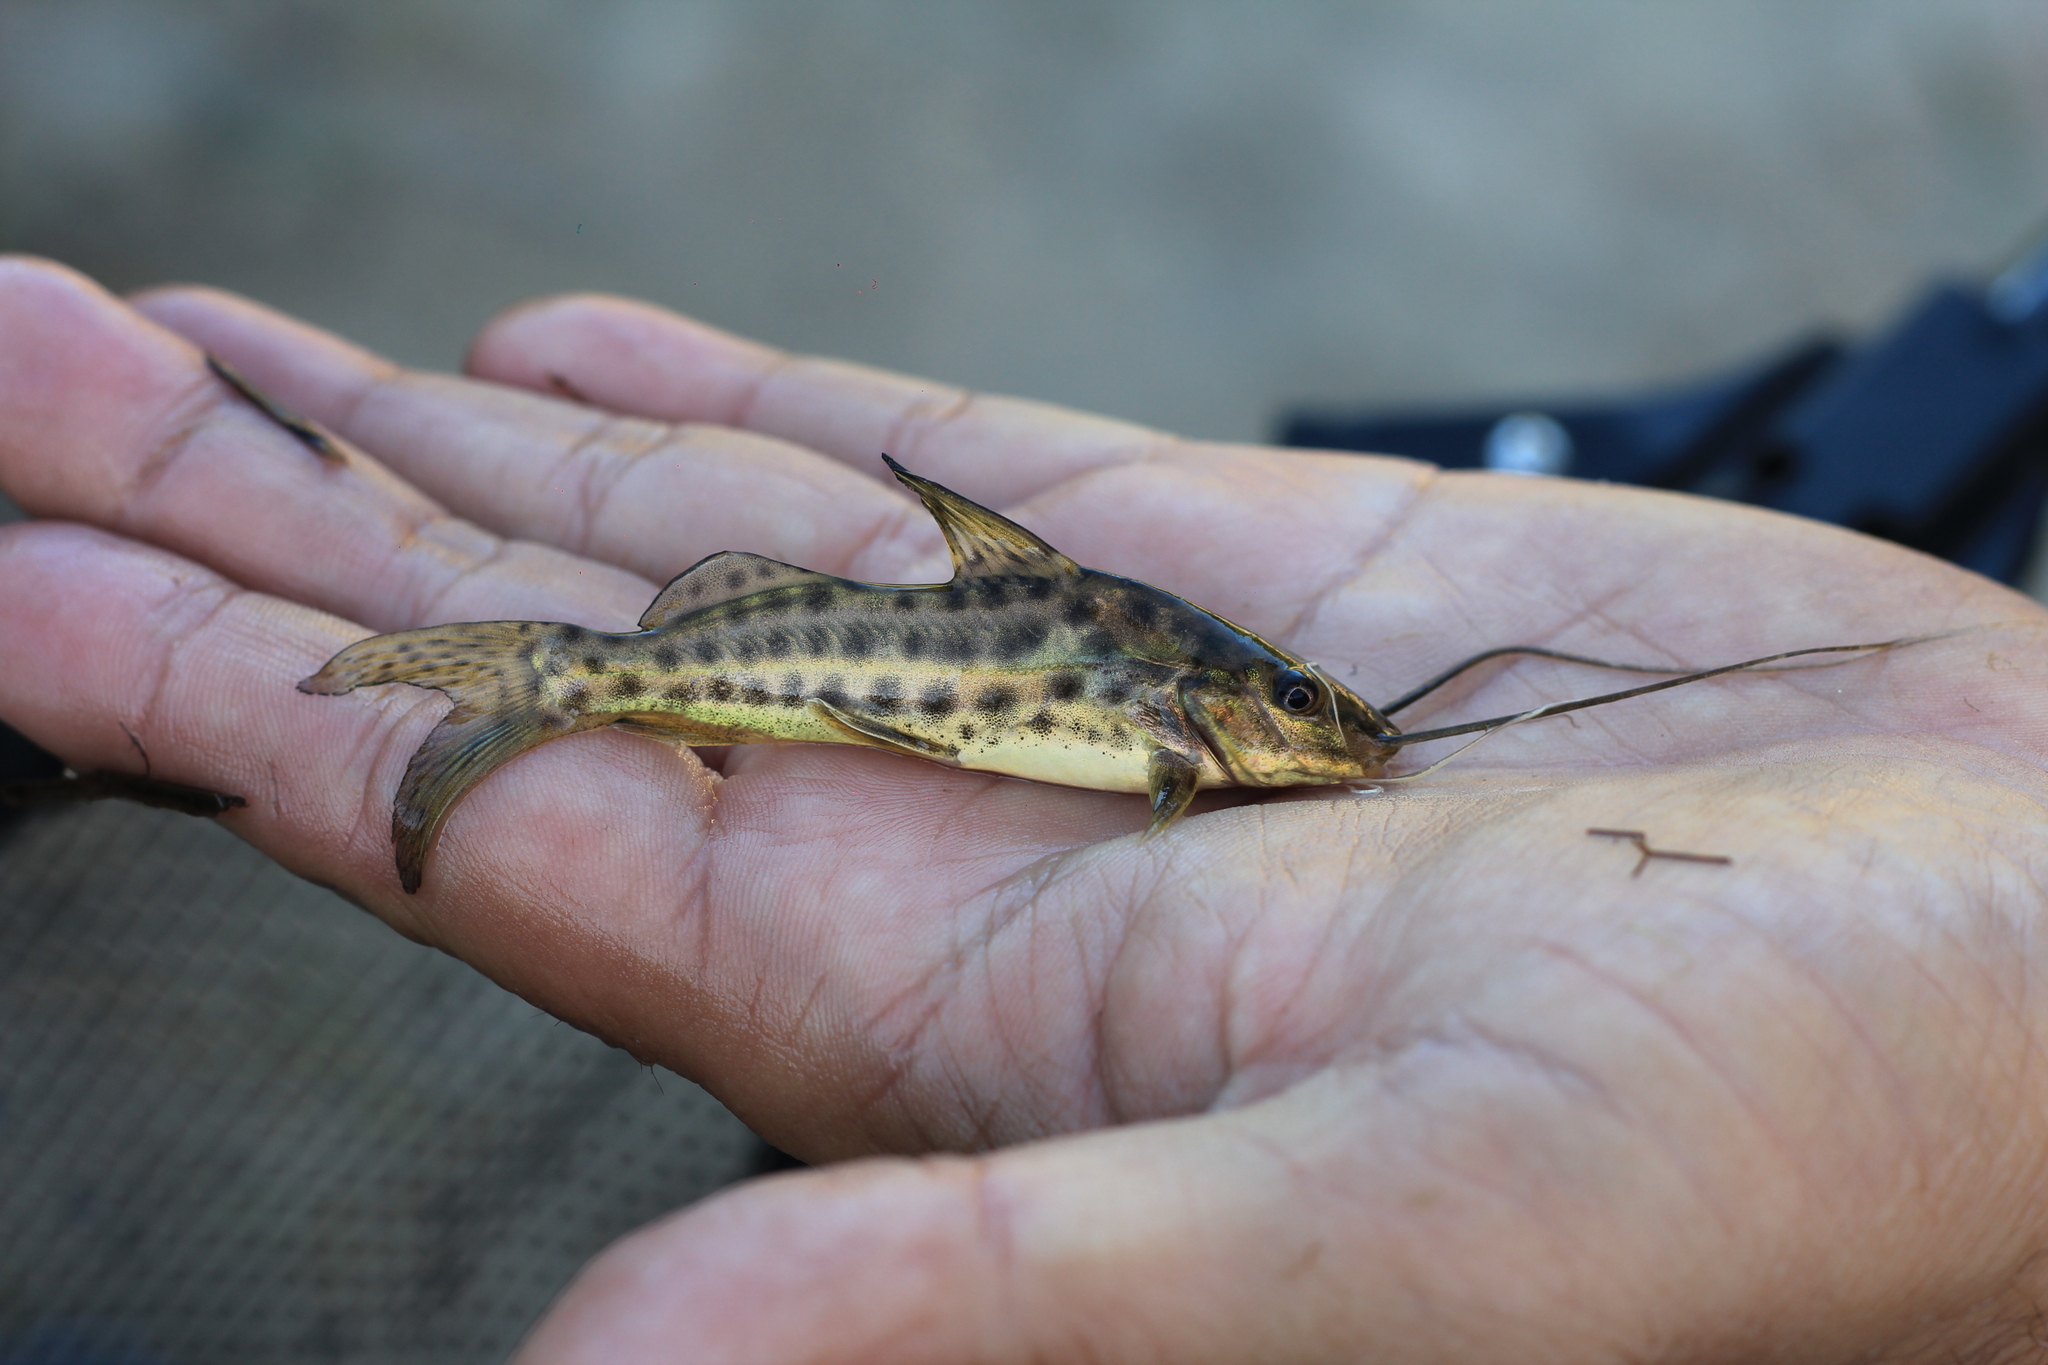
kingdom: Animalia
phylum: Chordata
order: Siluriformes
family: Pimelodidae
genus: Pimelodus
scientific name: Pimelodus maculatus
